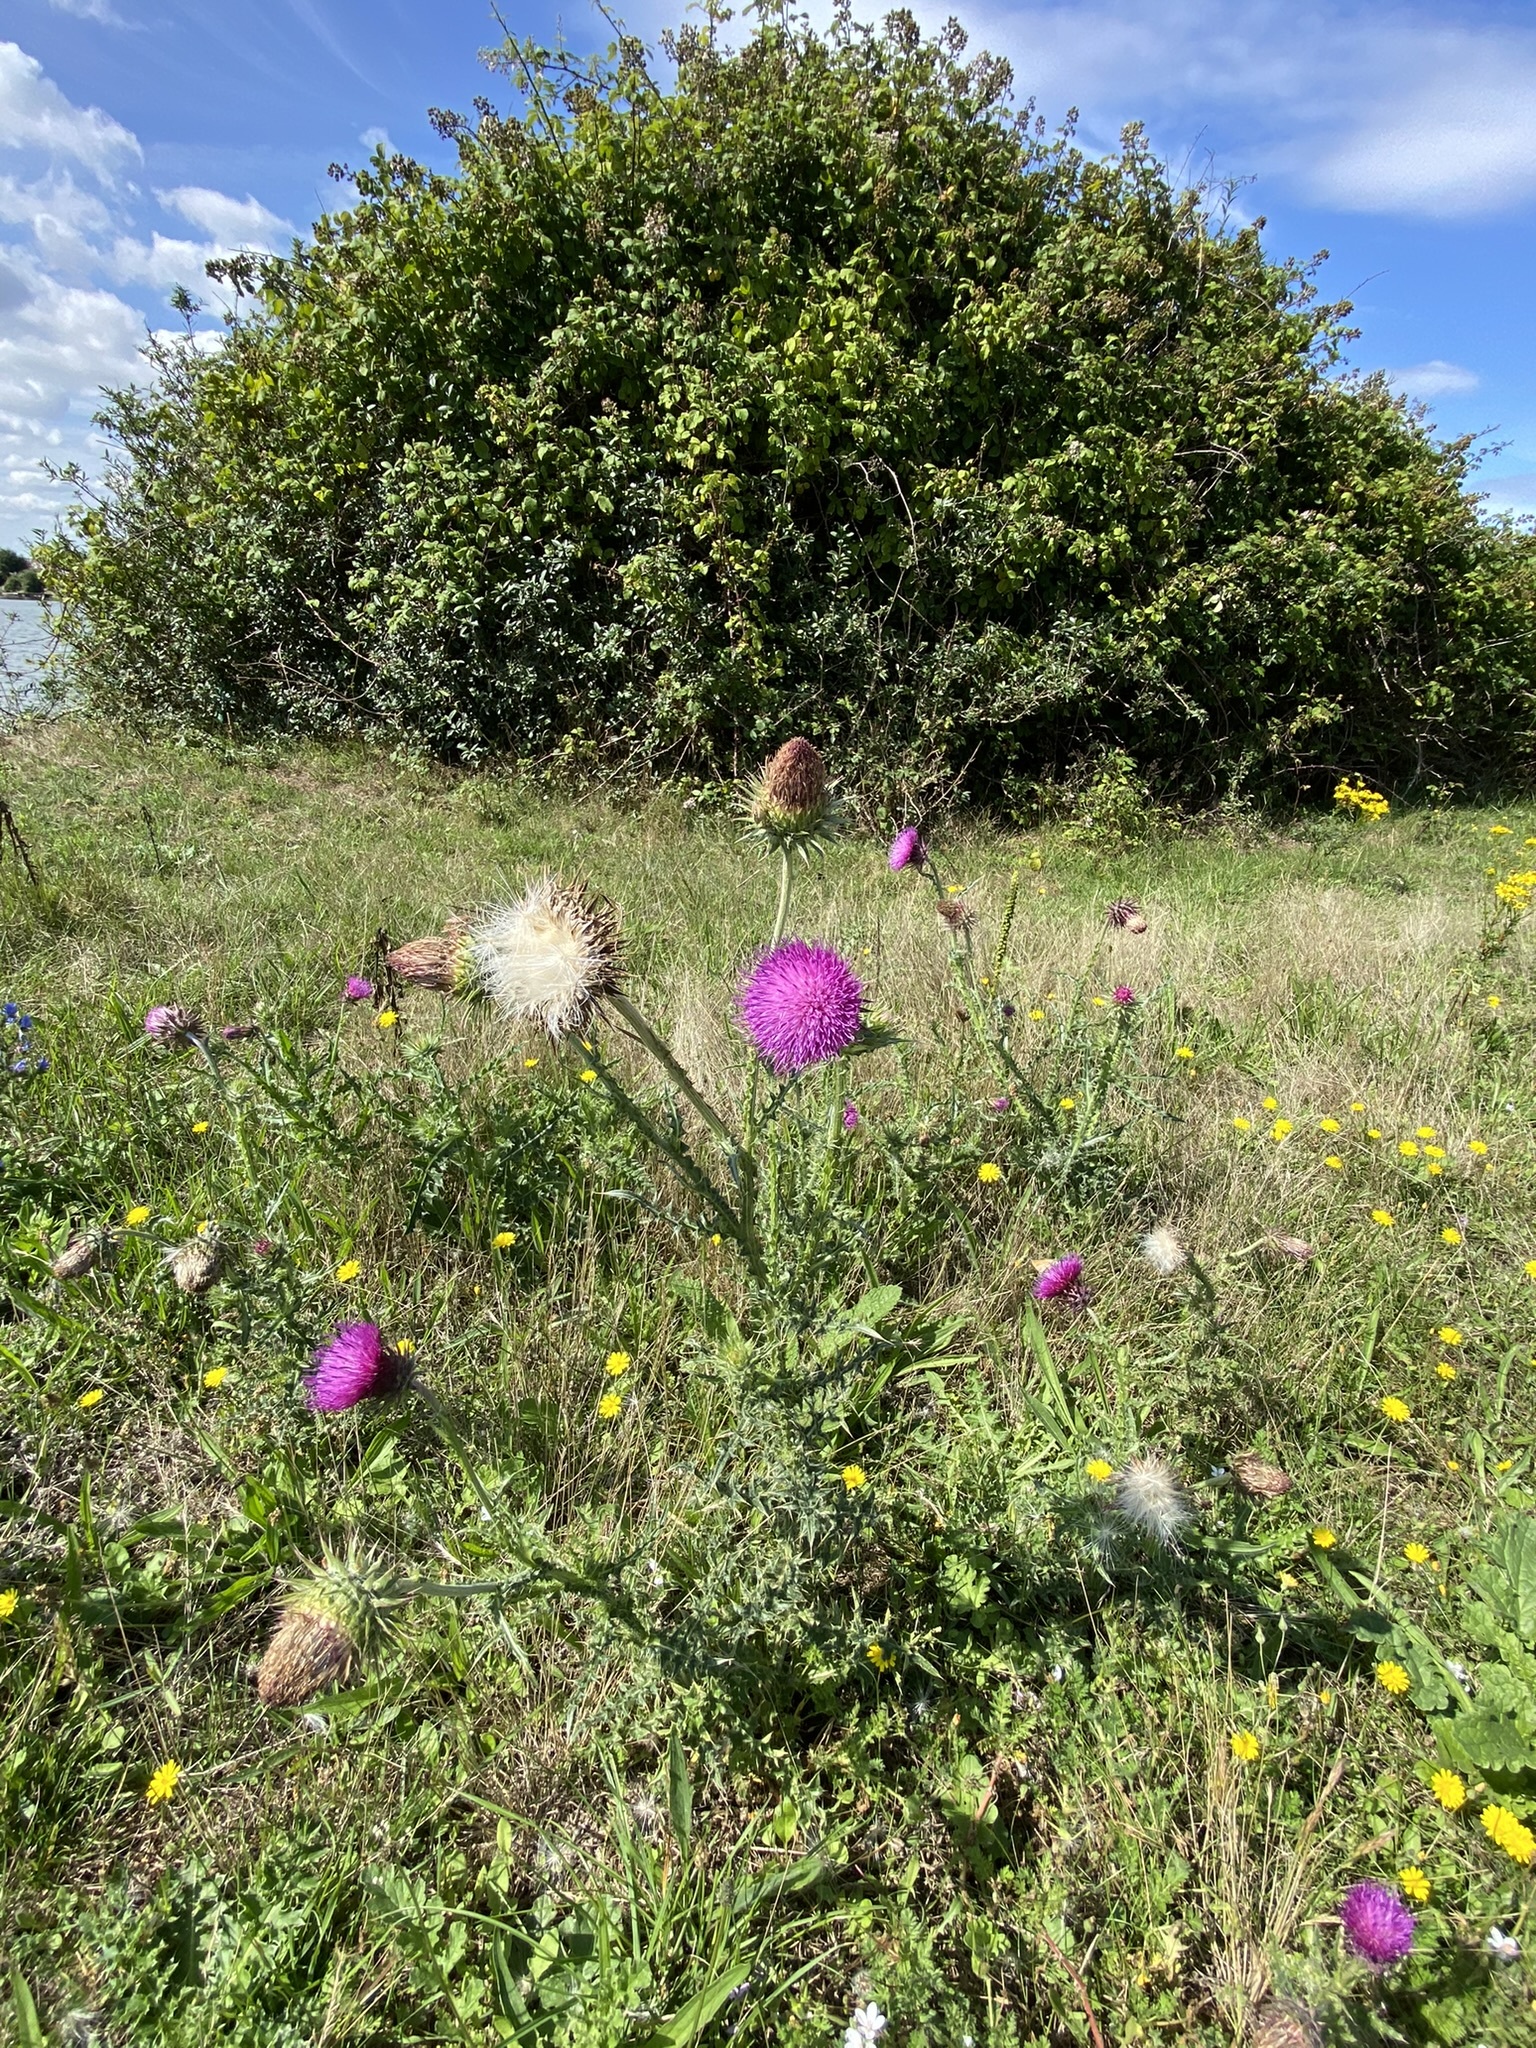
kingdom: Plantae
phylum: Tracheophyta
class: Magnoliopsida
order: Asterales
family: Asteraceae
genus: Carduus
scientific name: Carduus nutans
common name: Musk thistle
